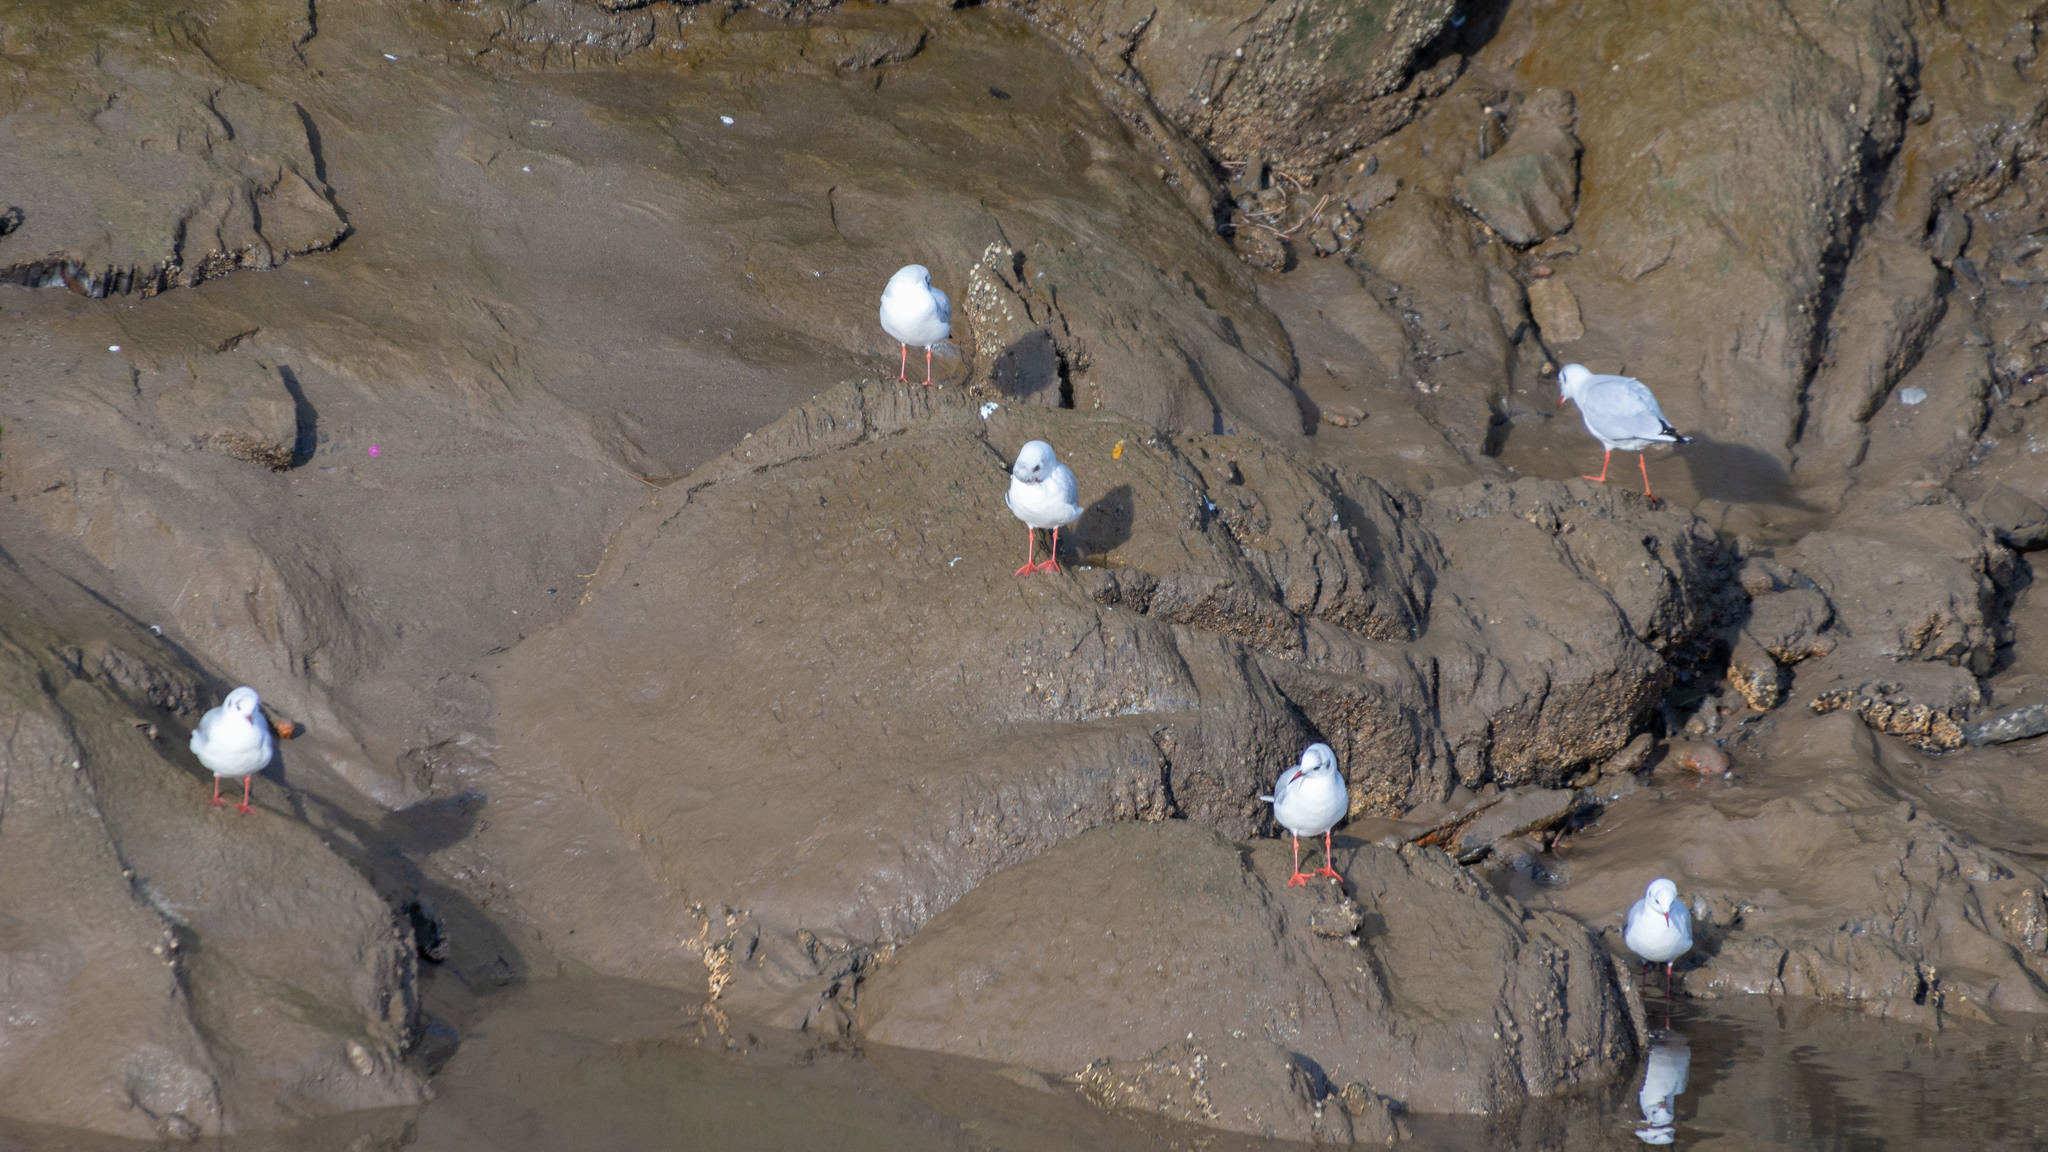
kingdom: Animalia
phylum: Chordata
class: Aves
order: Charadriiformes
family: Laridae
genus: Chroicocephalus
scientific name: Chroicocephalus ridibundus
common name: Black-headed gull
